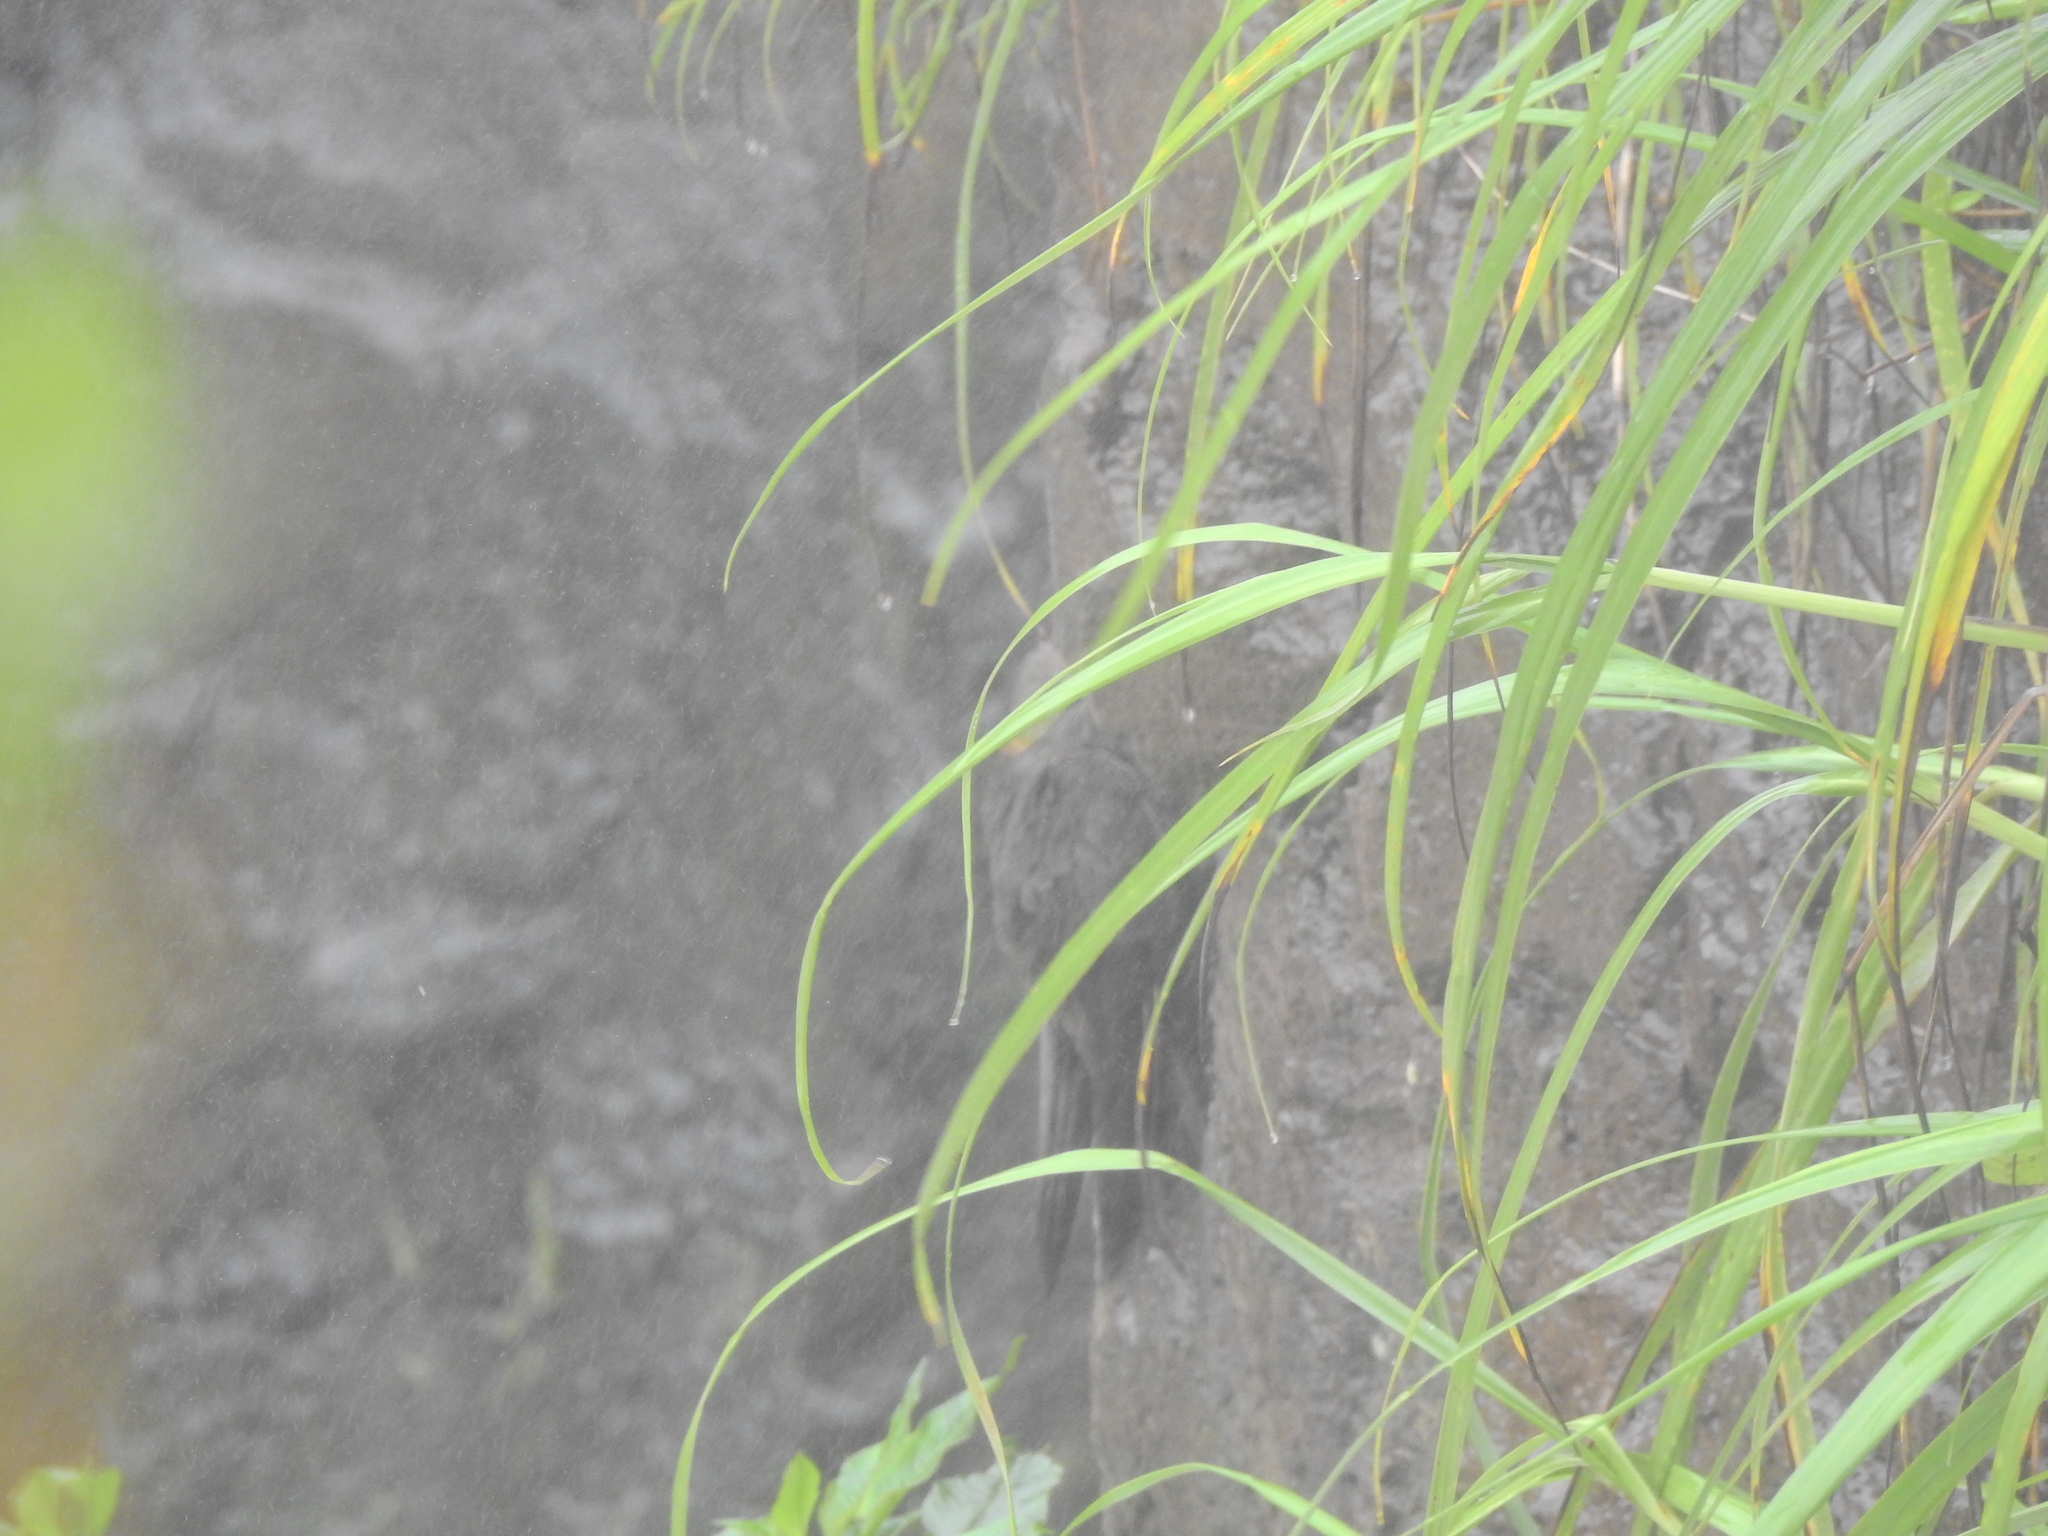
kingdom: Animalia
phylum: Chordata
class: Aves
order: Apodiformes
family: Apodidae
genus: Cypseloides
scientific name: Cypseloides senex
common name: Great dusky swift
